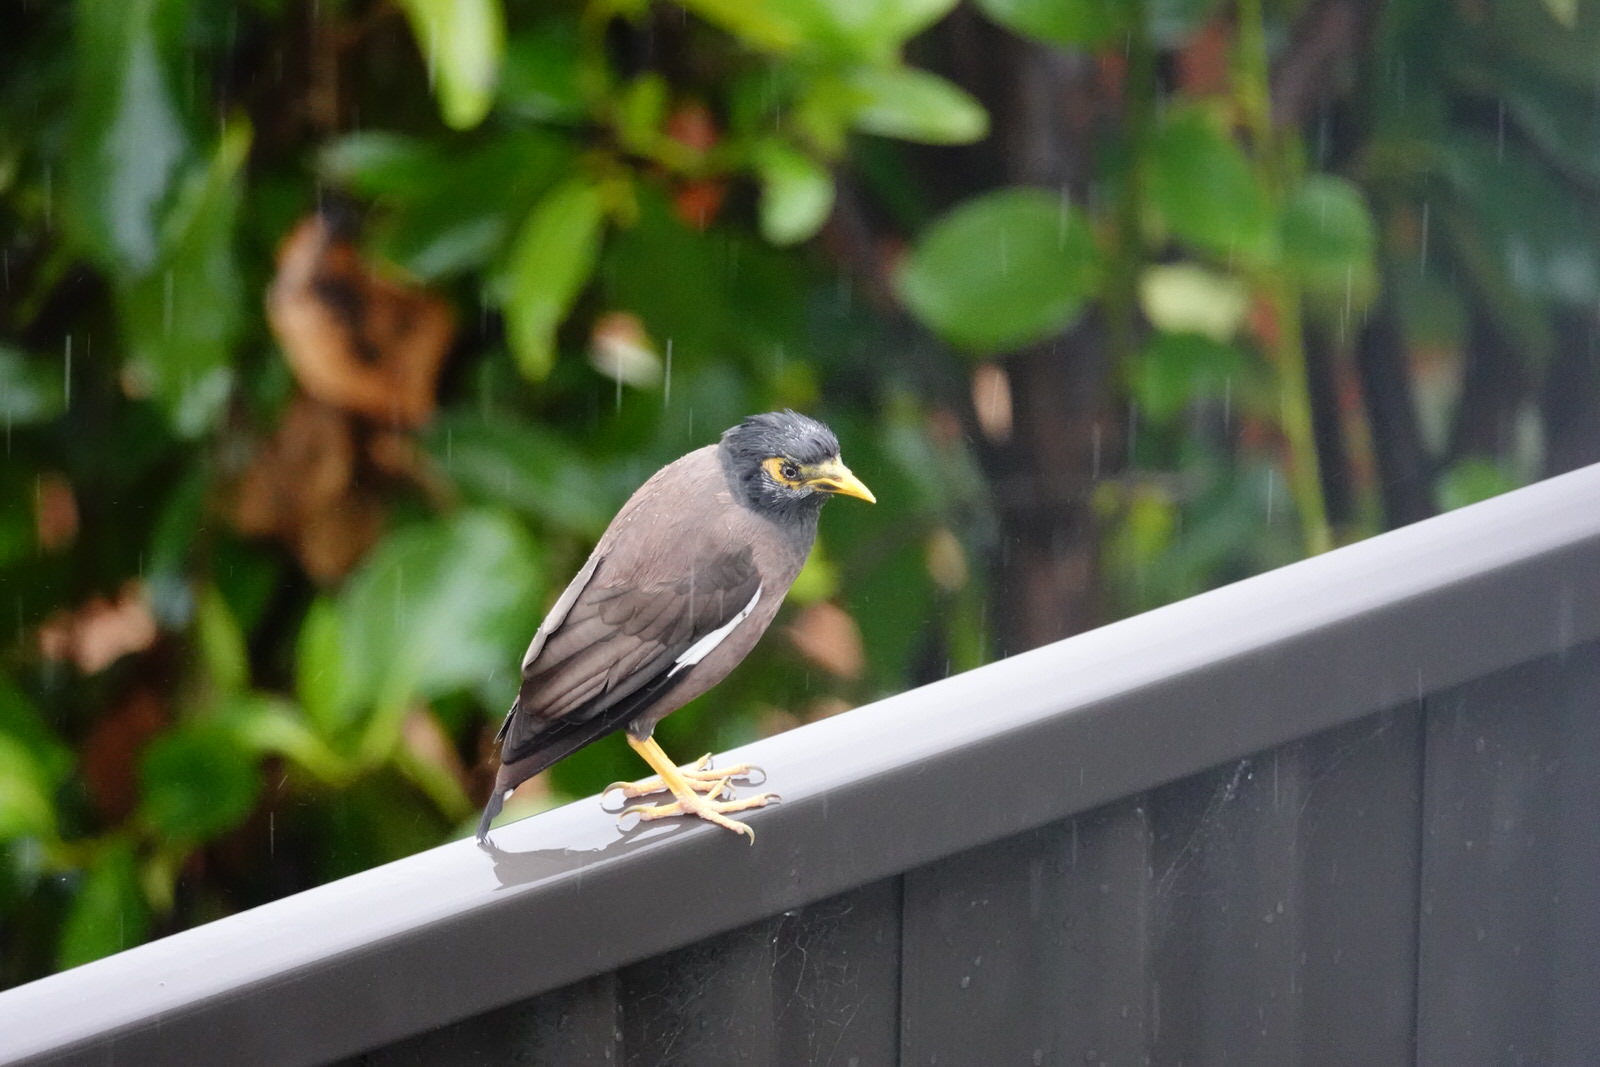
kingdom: Animalia
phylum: Chordata
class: Aves
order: Passeriformes
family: Sturnidae
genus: Acridotheres
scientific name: Acridotheres tristis
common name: Common myna
